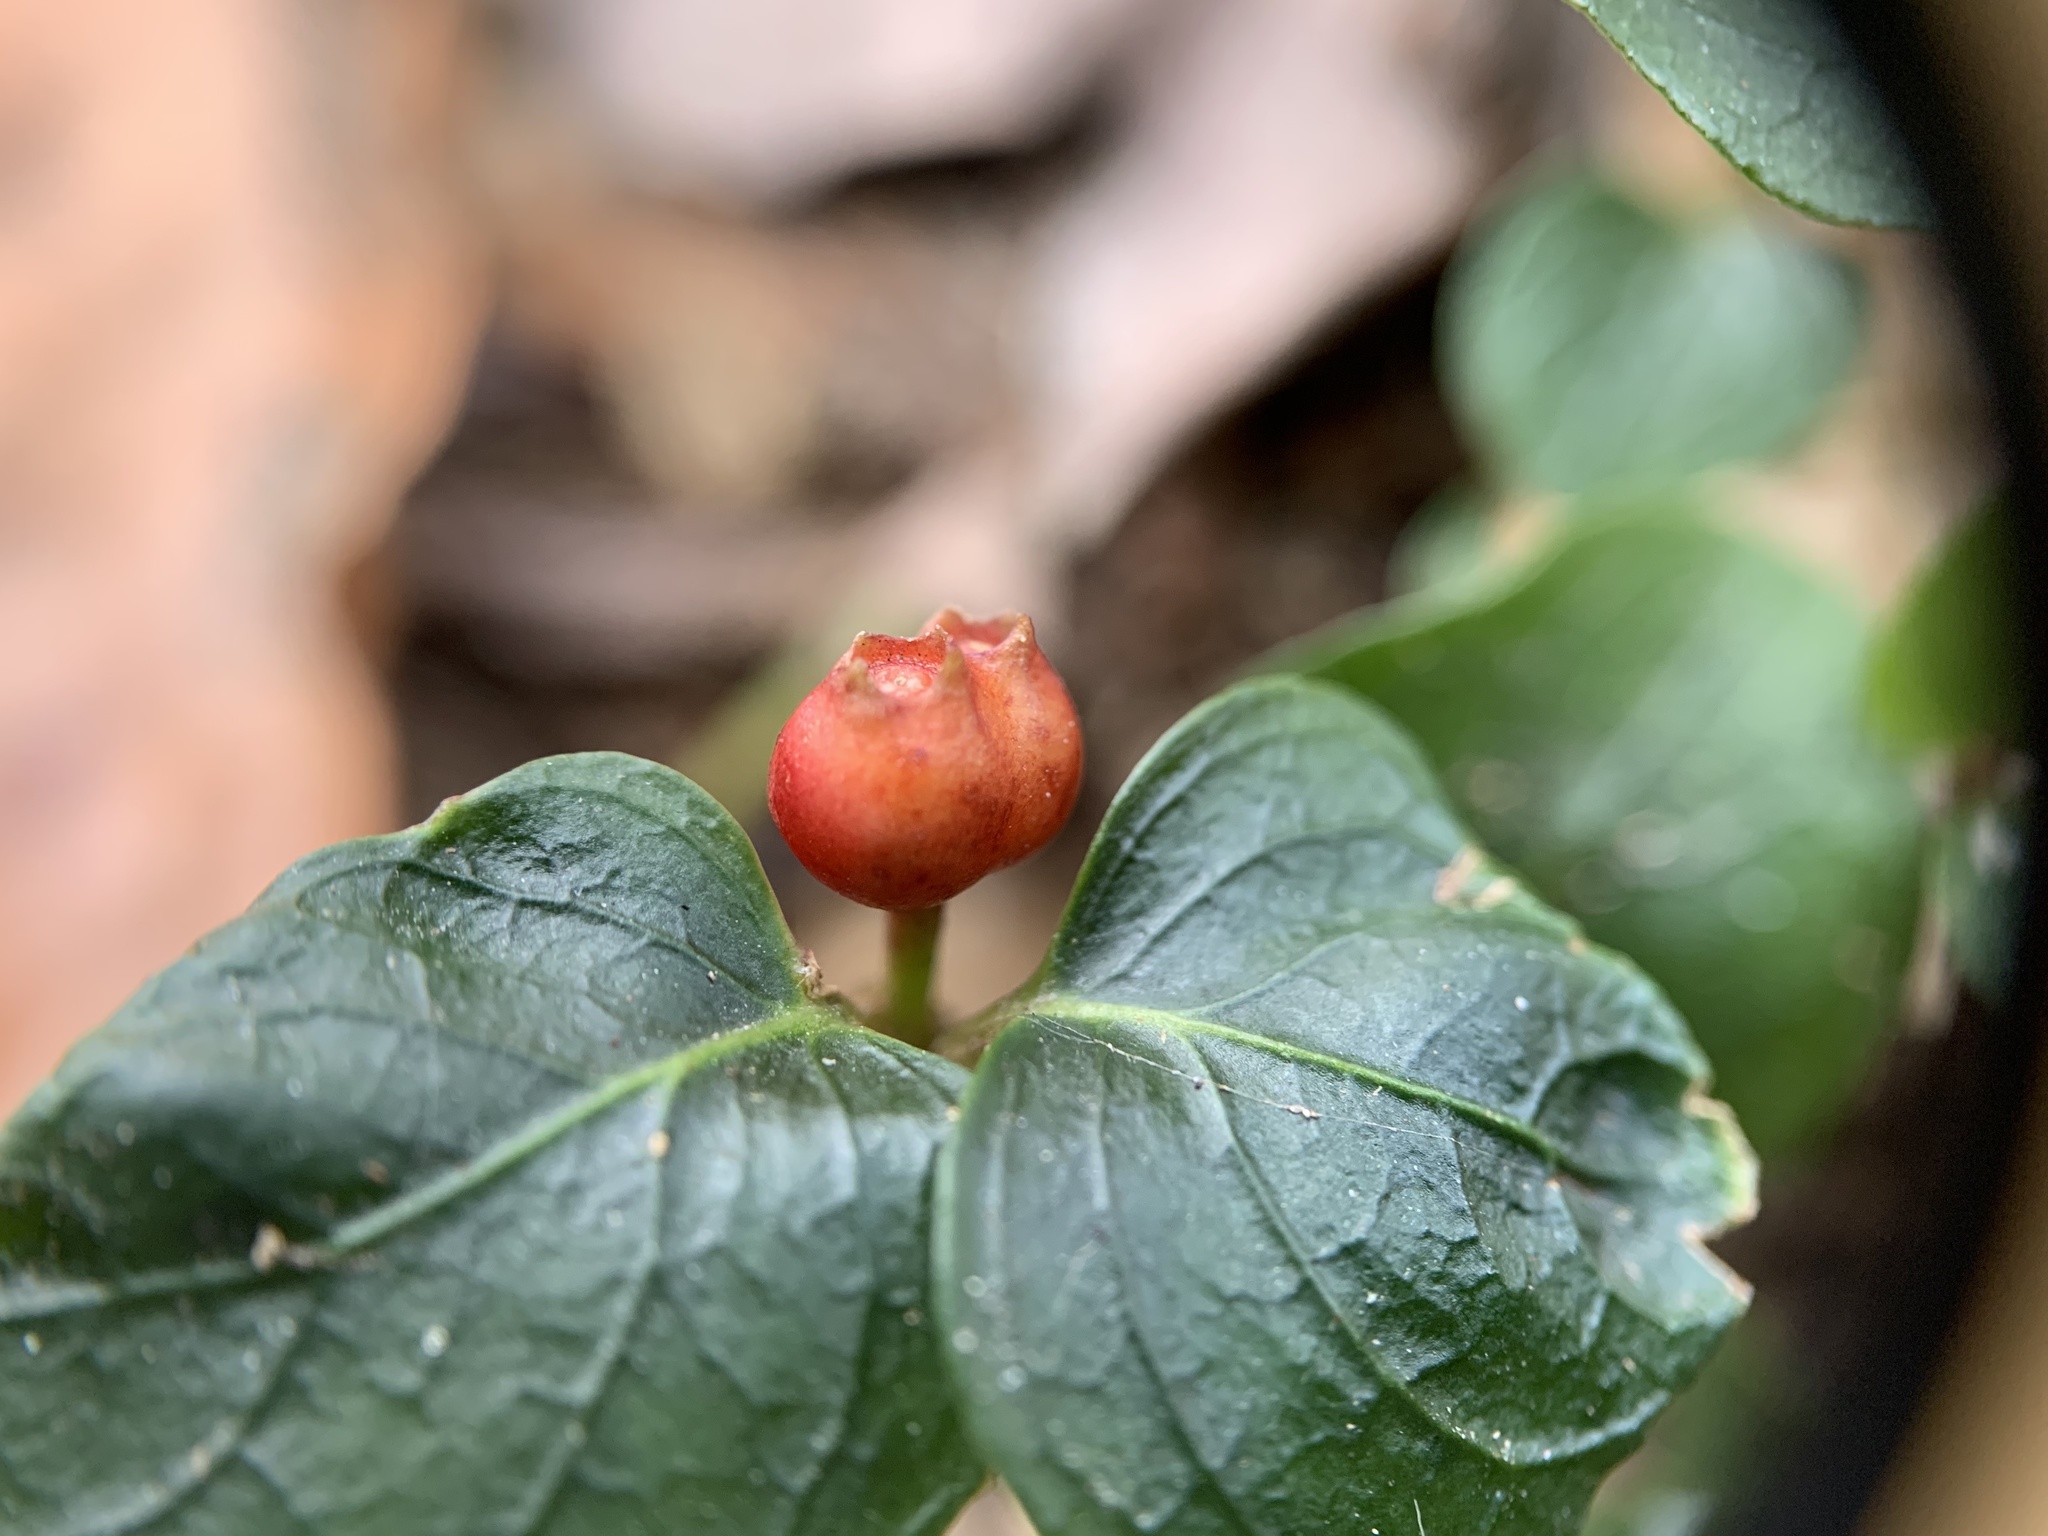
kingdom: Plantae
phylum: Tracheophyta
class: Magnoliopsida
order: Gentianales
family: Rubiaceae
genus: Mitchella
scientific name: Mitchella repens
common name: Partridge-berry
